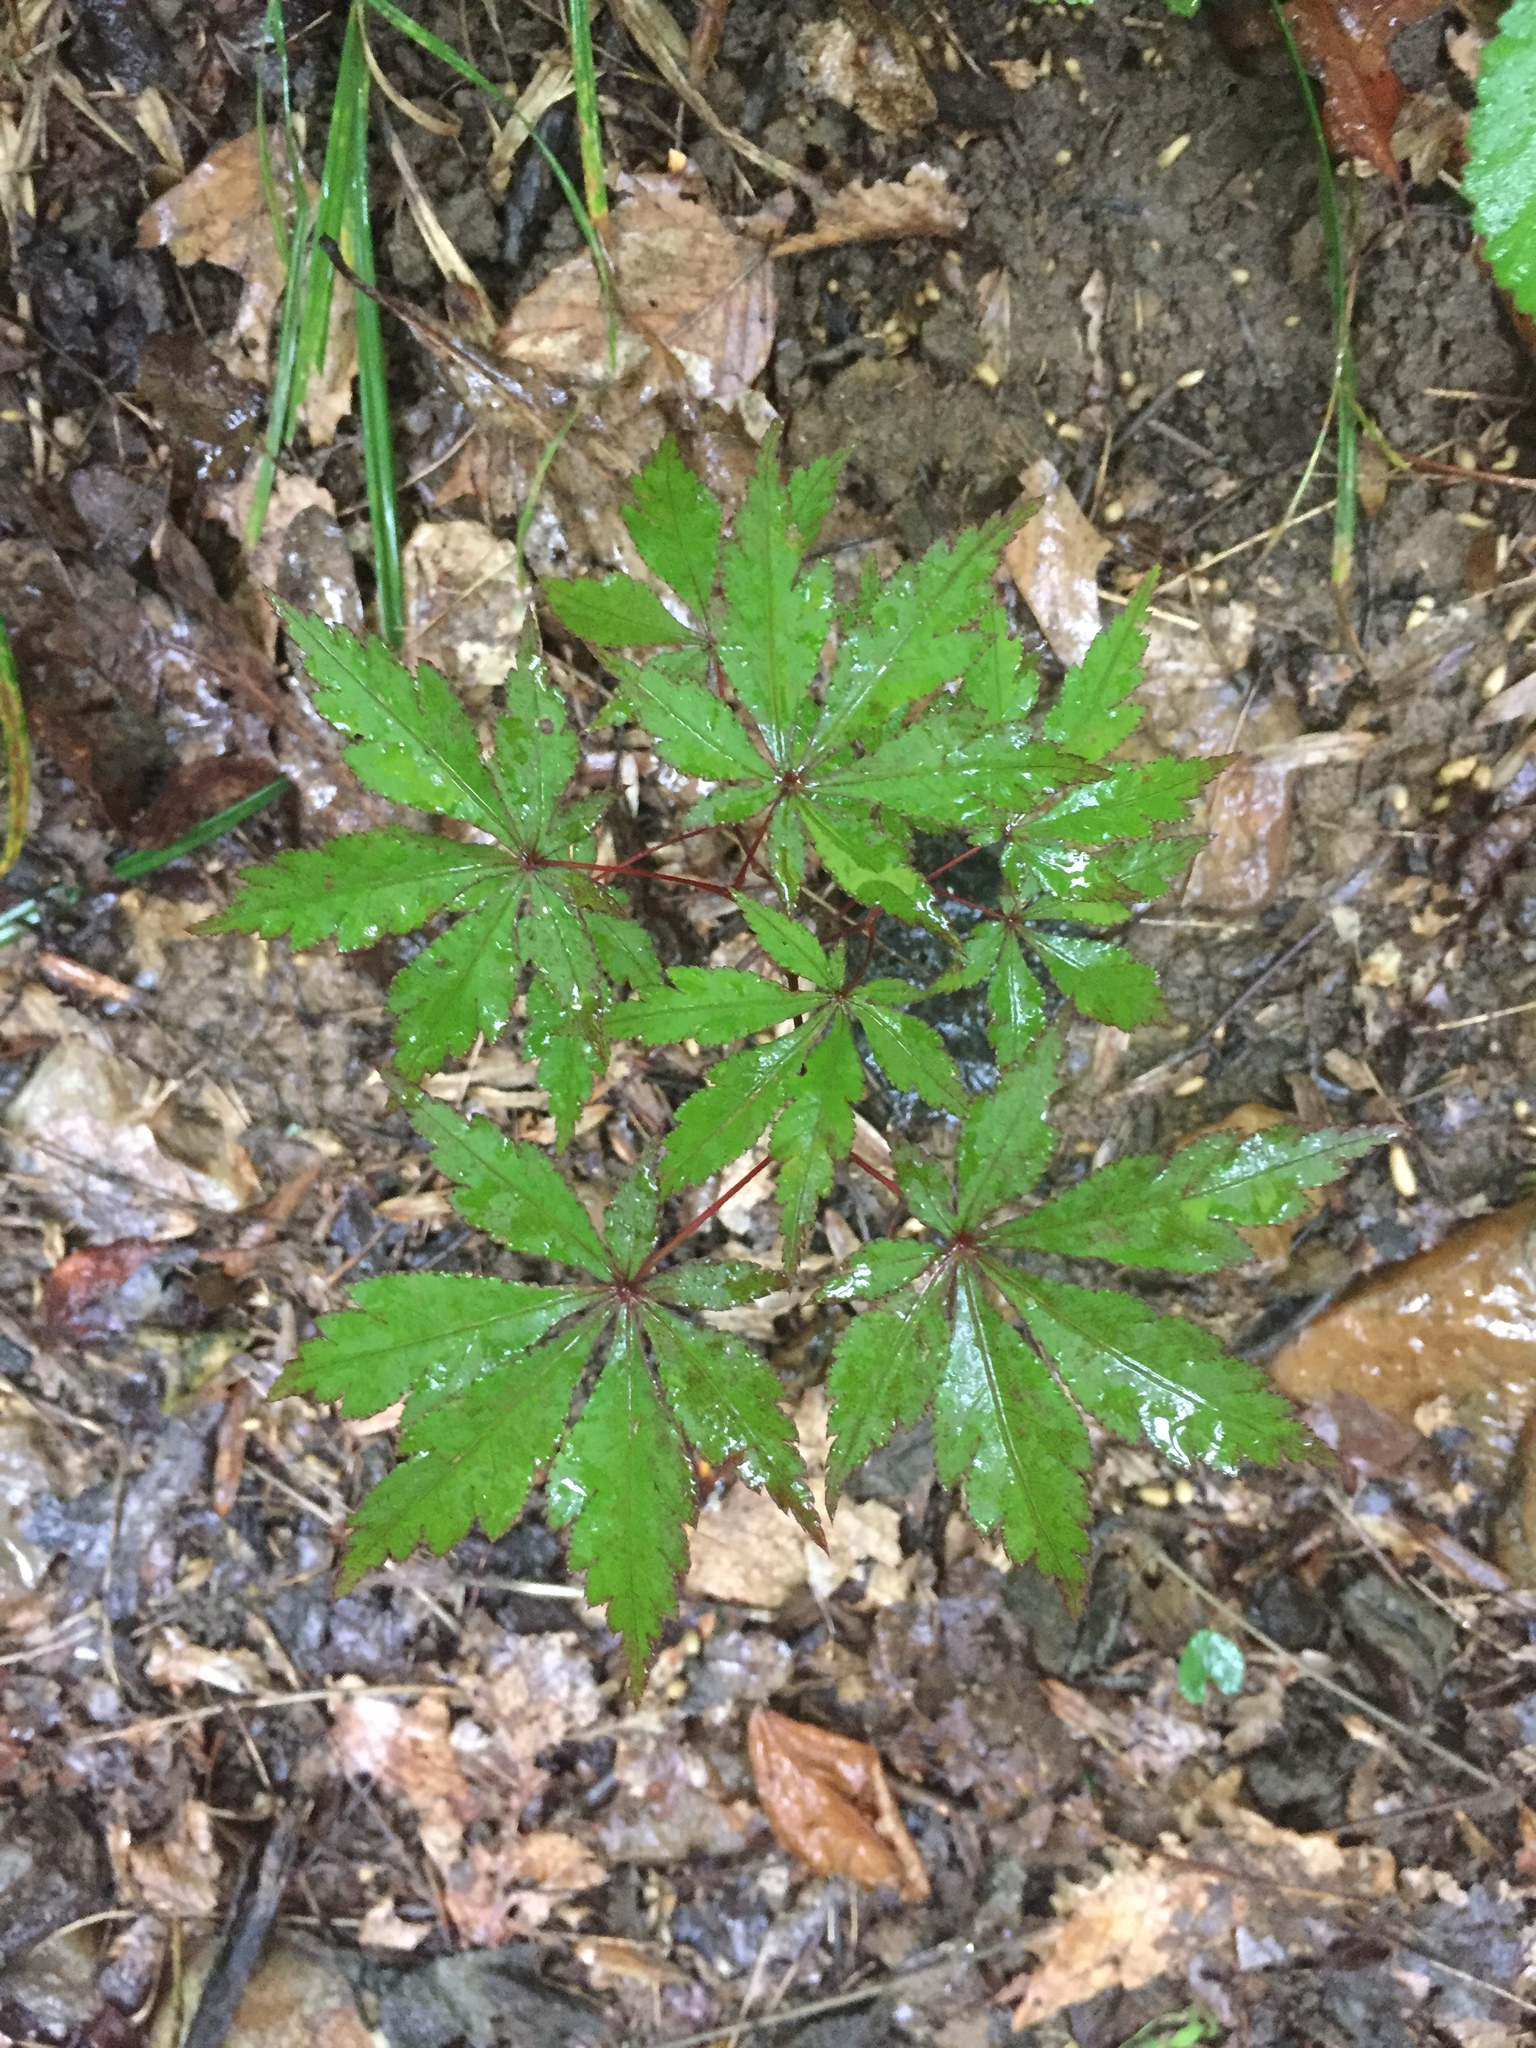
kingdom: Plantae
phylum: Tracheophyta
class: Magnoliopsida
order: Sapindales
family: Sapindaceae
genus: Acer
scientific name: Acer palmatum
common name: Japanese maple
